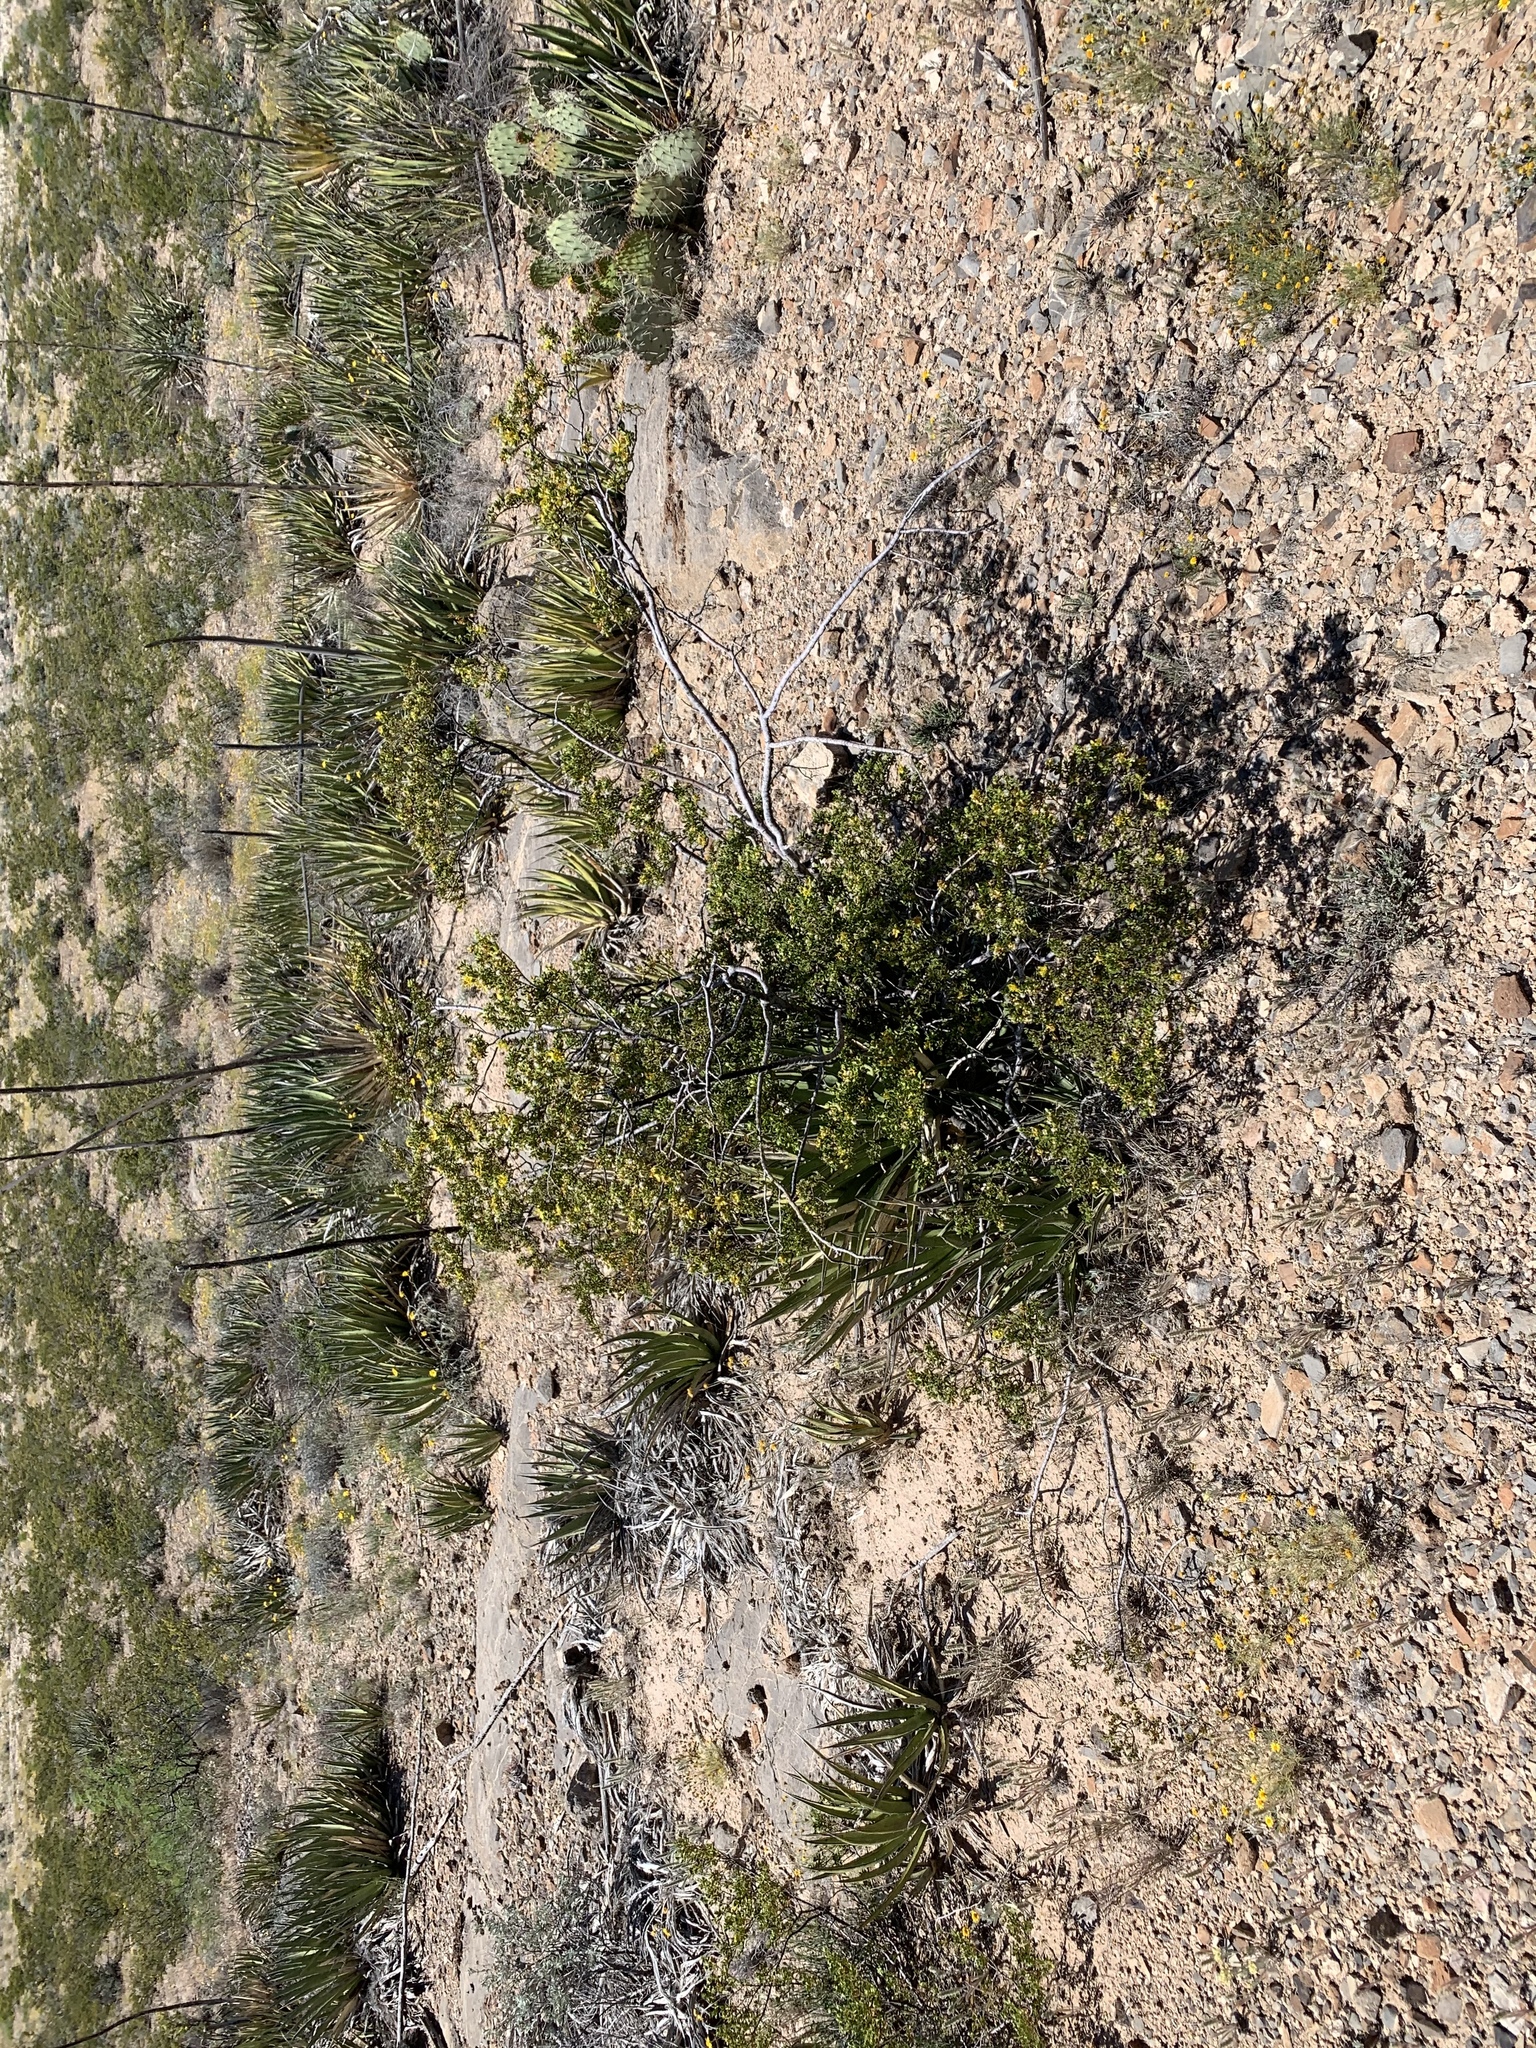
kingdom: Plantae
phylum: Tracheophyta
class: Magnoliopsida
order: Zygophyllales
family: Zygophyllaceae
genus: Larrea
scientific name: Larrea tridentata
